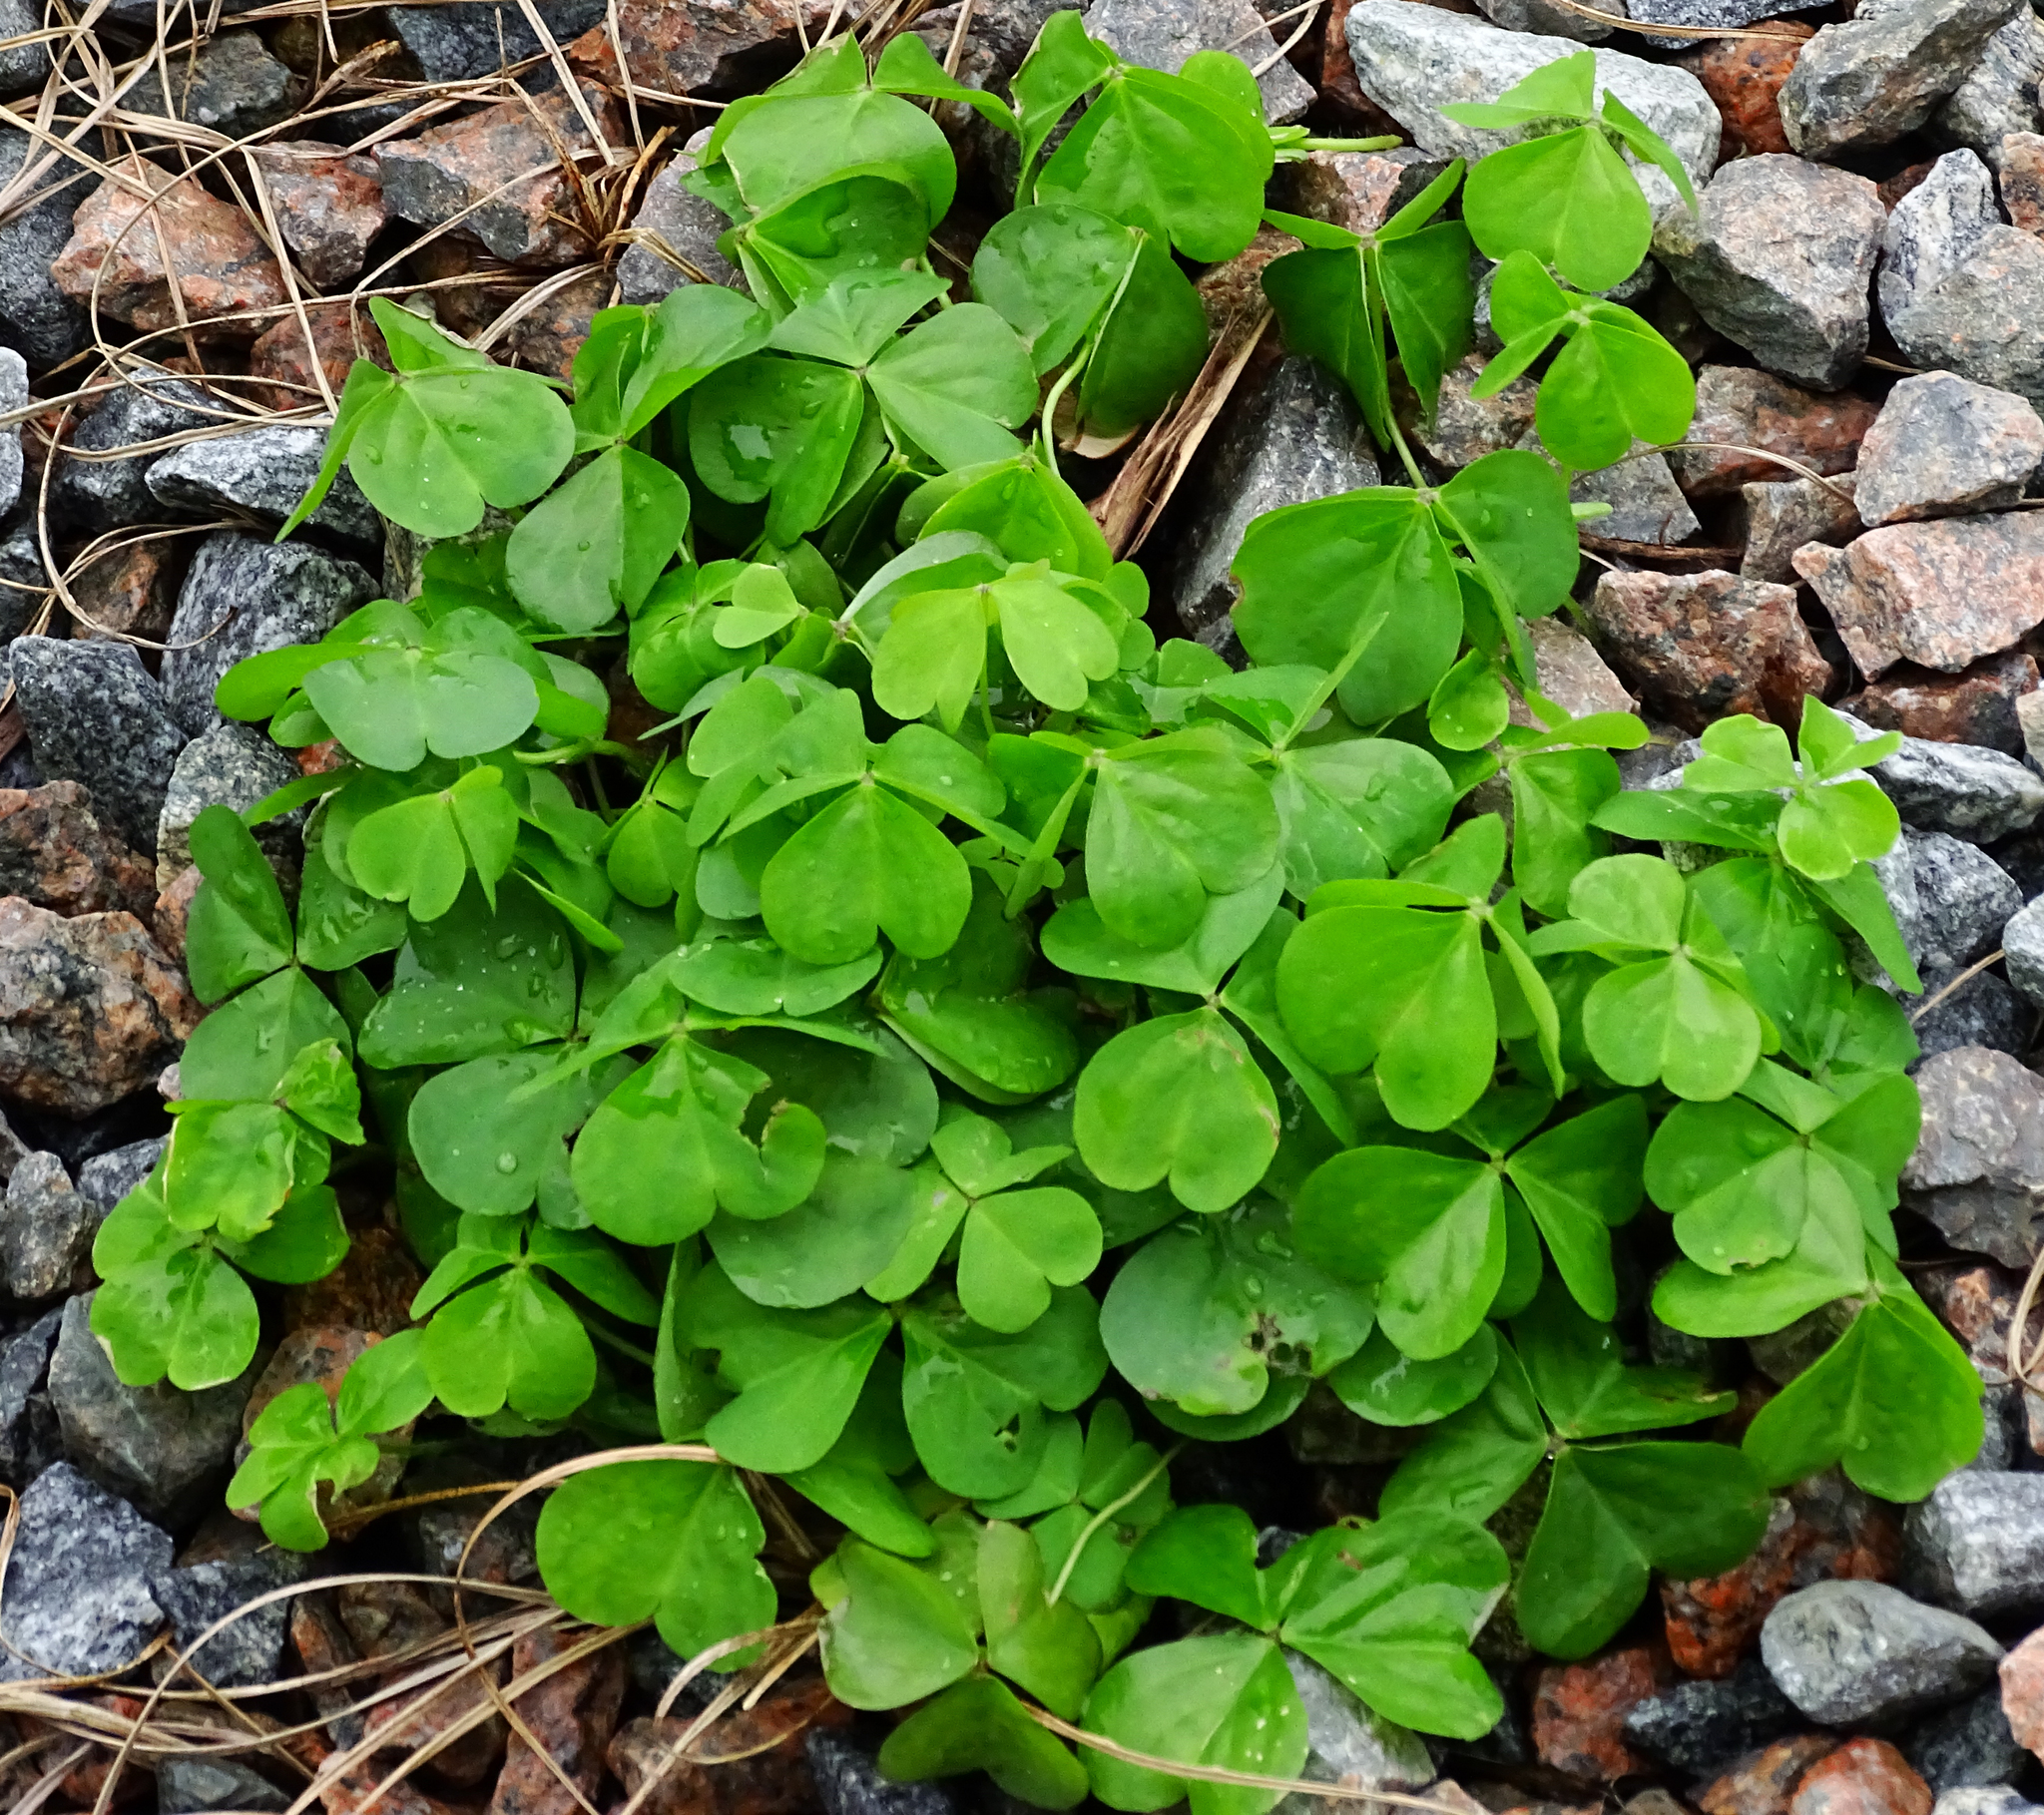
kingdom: Plantae
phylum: Tracheophyta
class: Magnoliopsida
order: Oxalidales
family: Oxalidaceae
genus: Oxalis
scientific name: Oxalis debilis
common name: Large-flowered pink-sorrel
